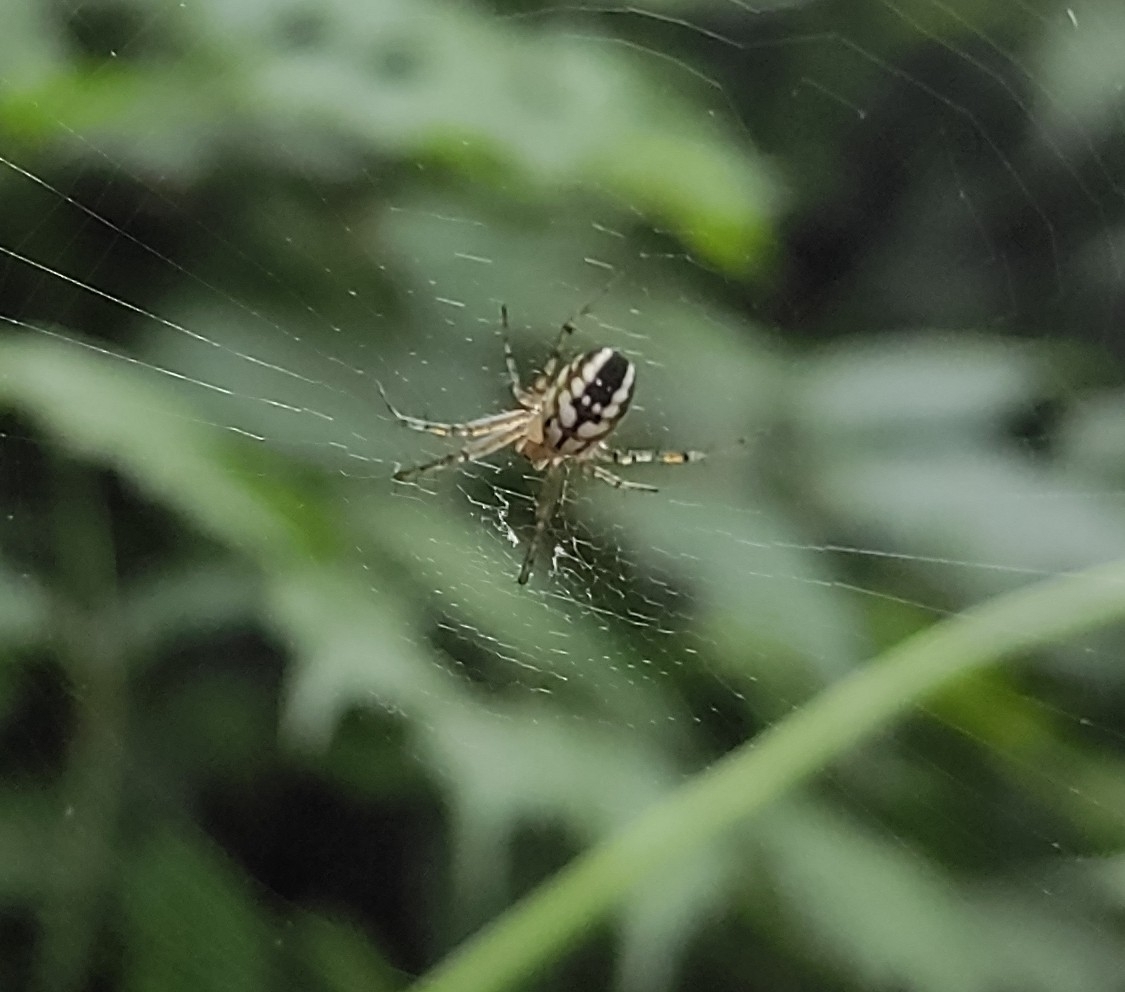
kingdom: Animalia
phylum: Arthropoda
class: Arachnida
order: Araneae
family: Araneidae
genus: Mangora
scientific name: Mangora acalypha
